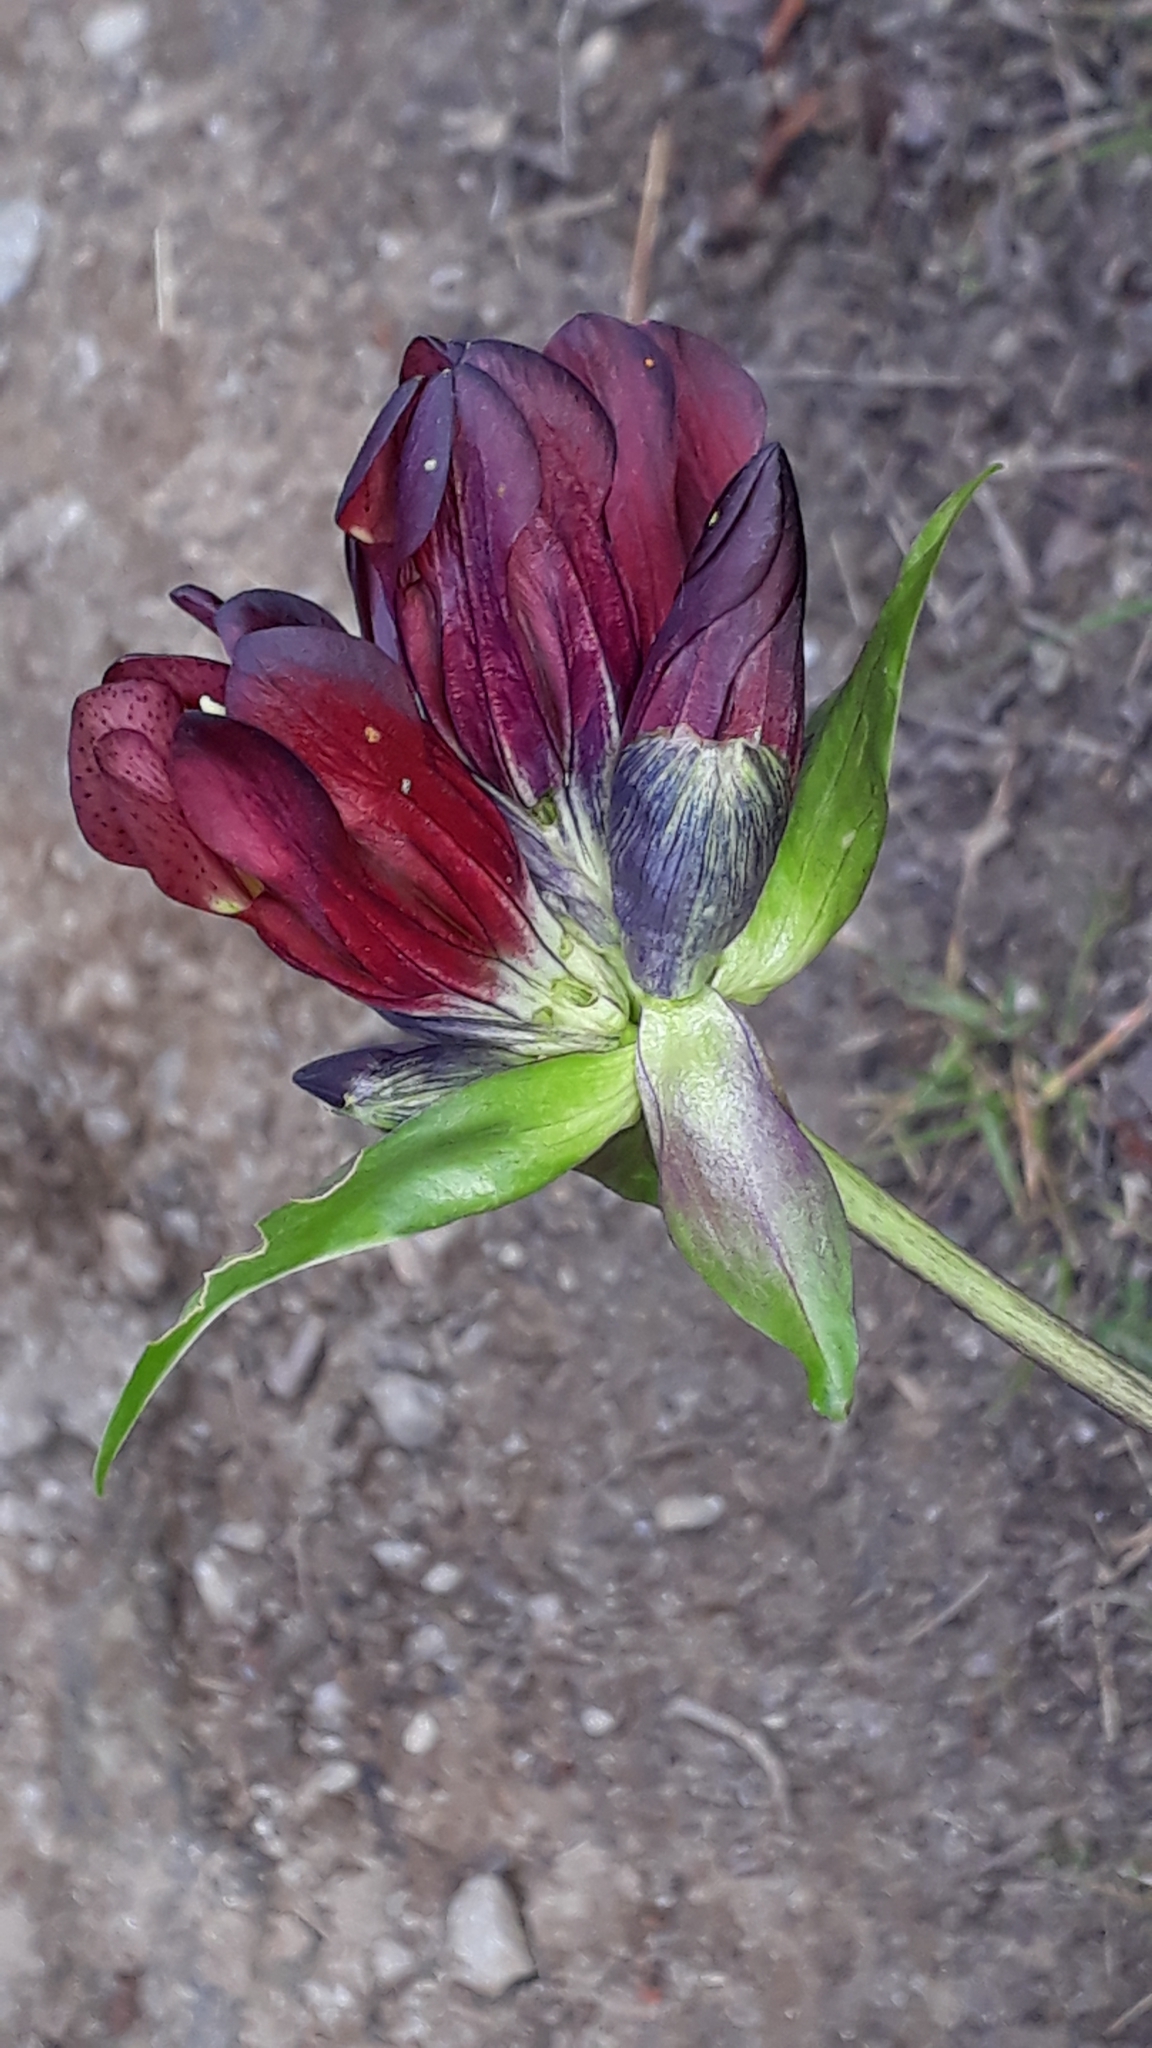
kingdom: Plantae
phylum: Tracheophyta
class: Magnoliopsida
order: Gentianales
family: Gentianaceae
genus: Gentiana
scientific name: Gentiana purpurea
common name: Purple gentian
